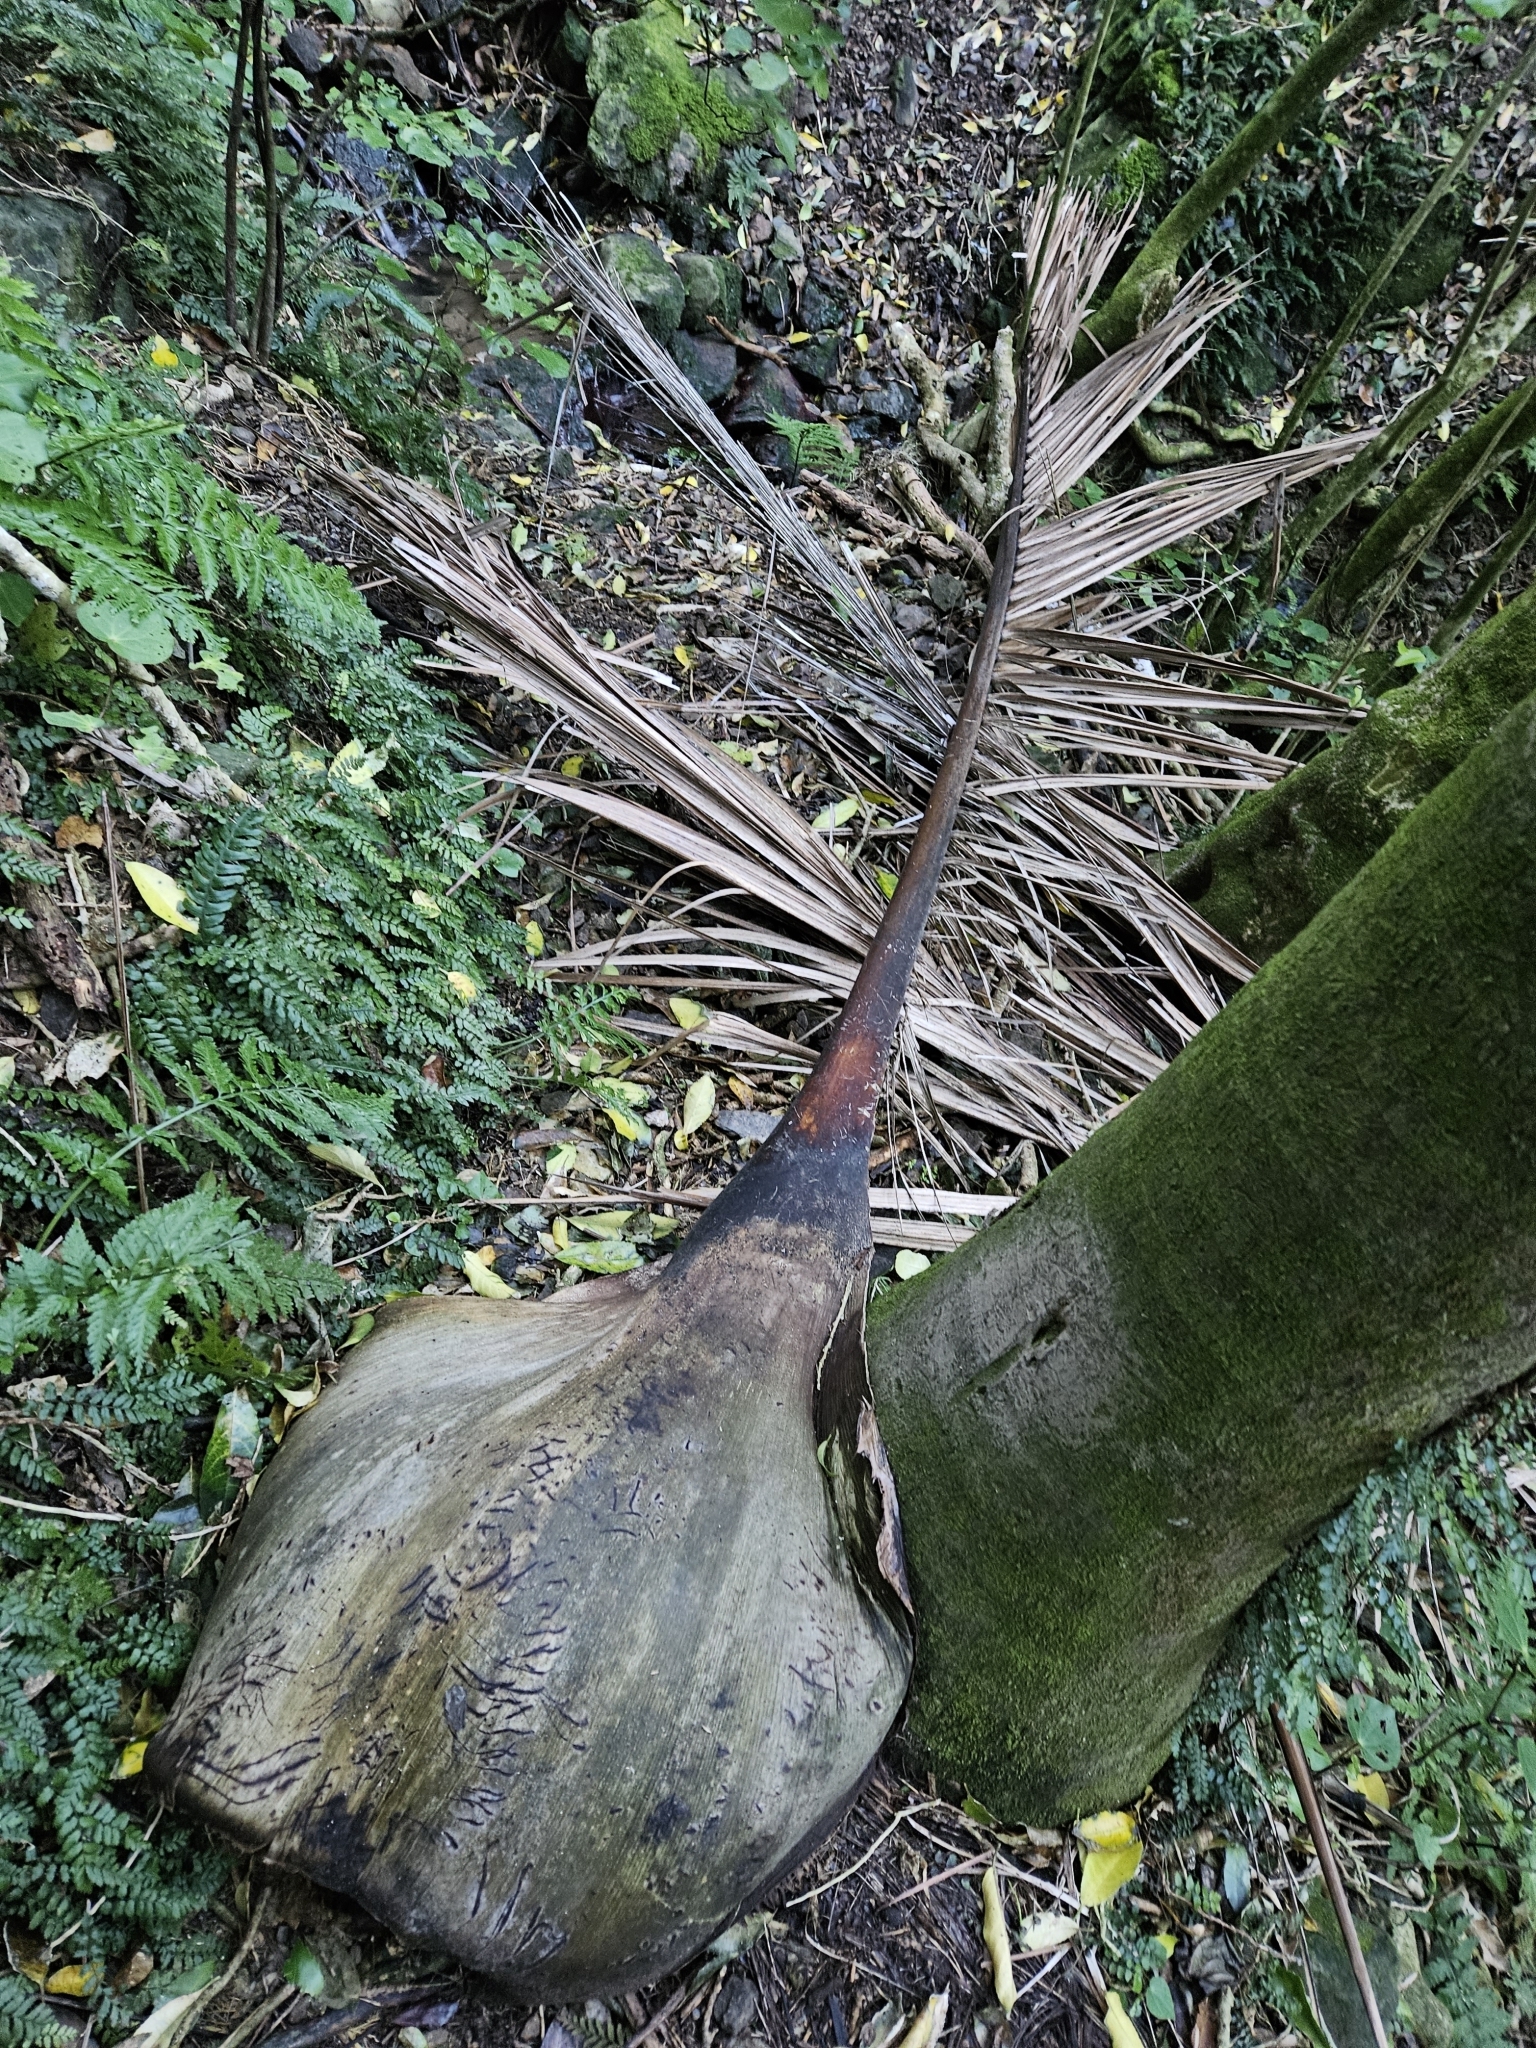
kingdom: Plantae
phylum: Tracheophyta
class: Liliopsida
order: Arecales
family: Arecaceae
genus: Rhopalostylis
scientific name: Rhopalostylis sapida
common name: Feather-duster palm
